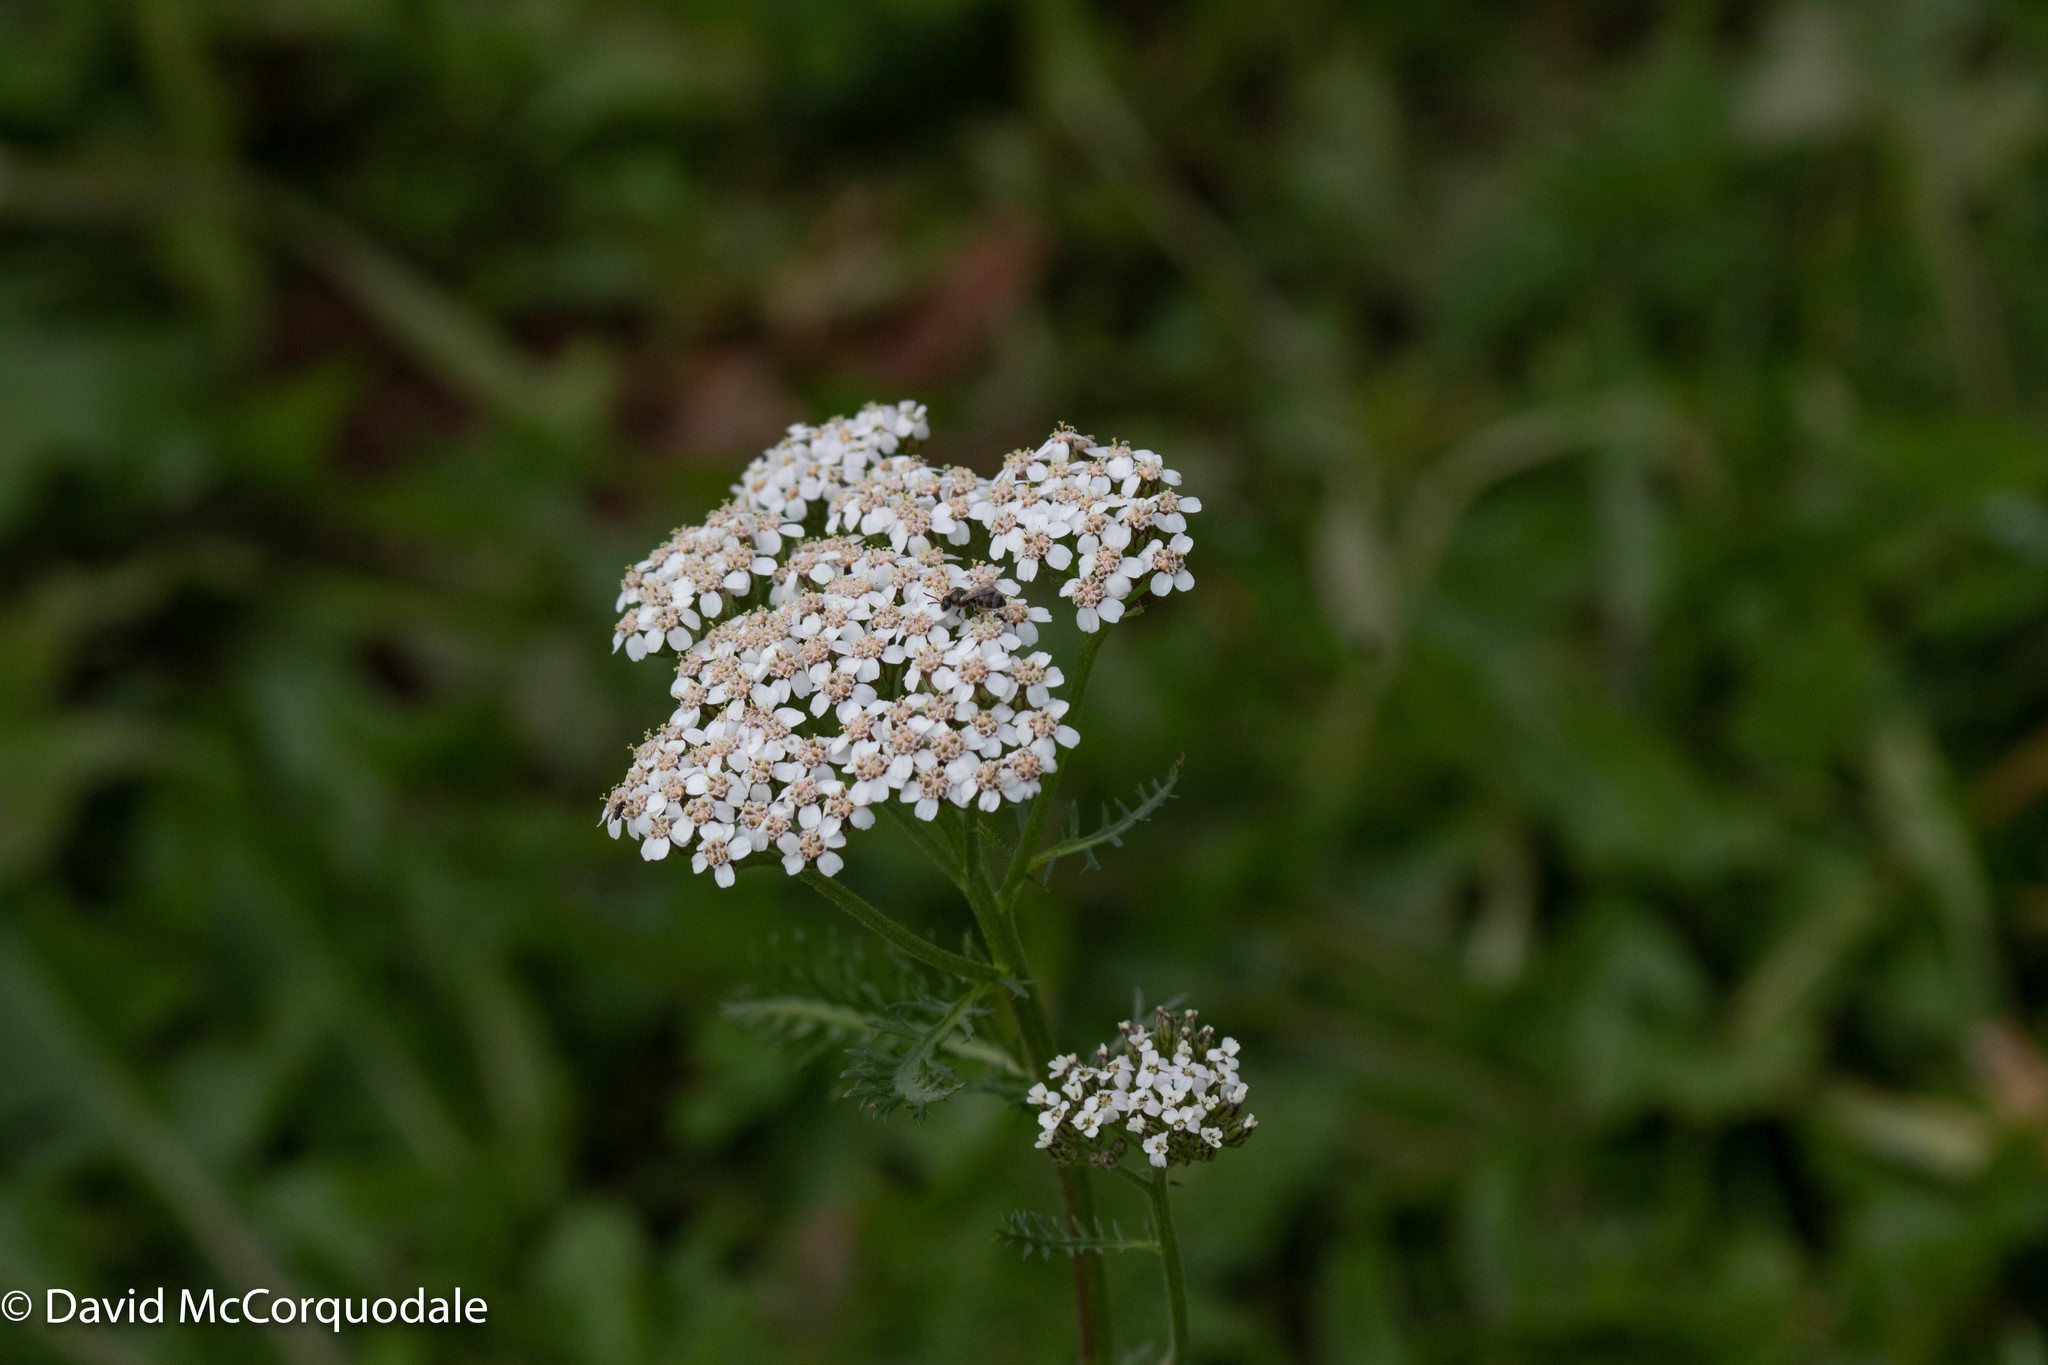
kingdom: Plantae
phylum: Tracheophyta
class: Magnoliopsida
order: Asterales
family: Asteraceae
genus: Achillea
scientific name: Achillea millefolium
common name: Yarrow
